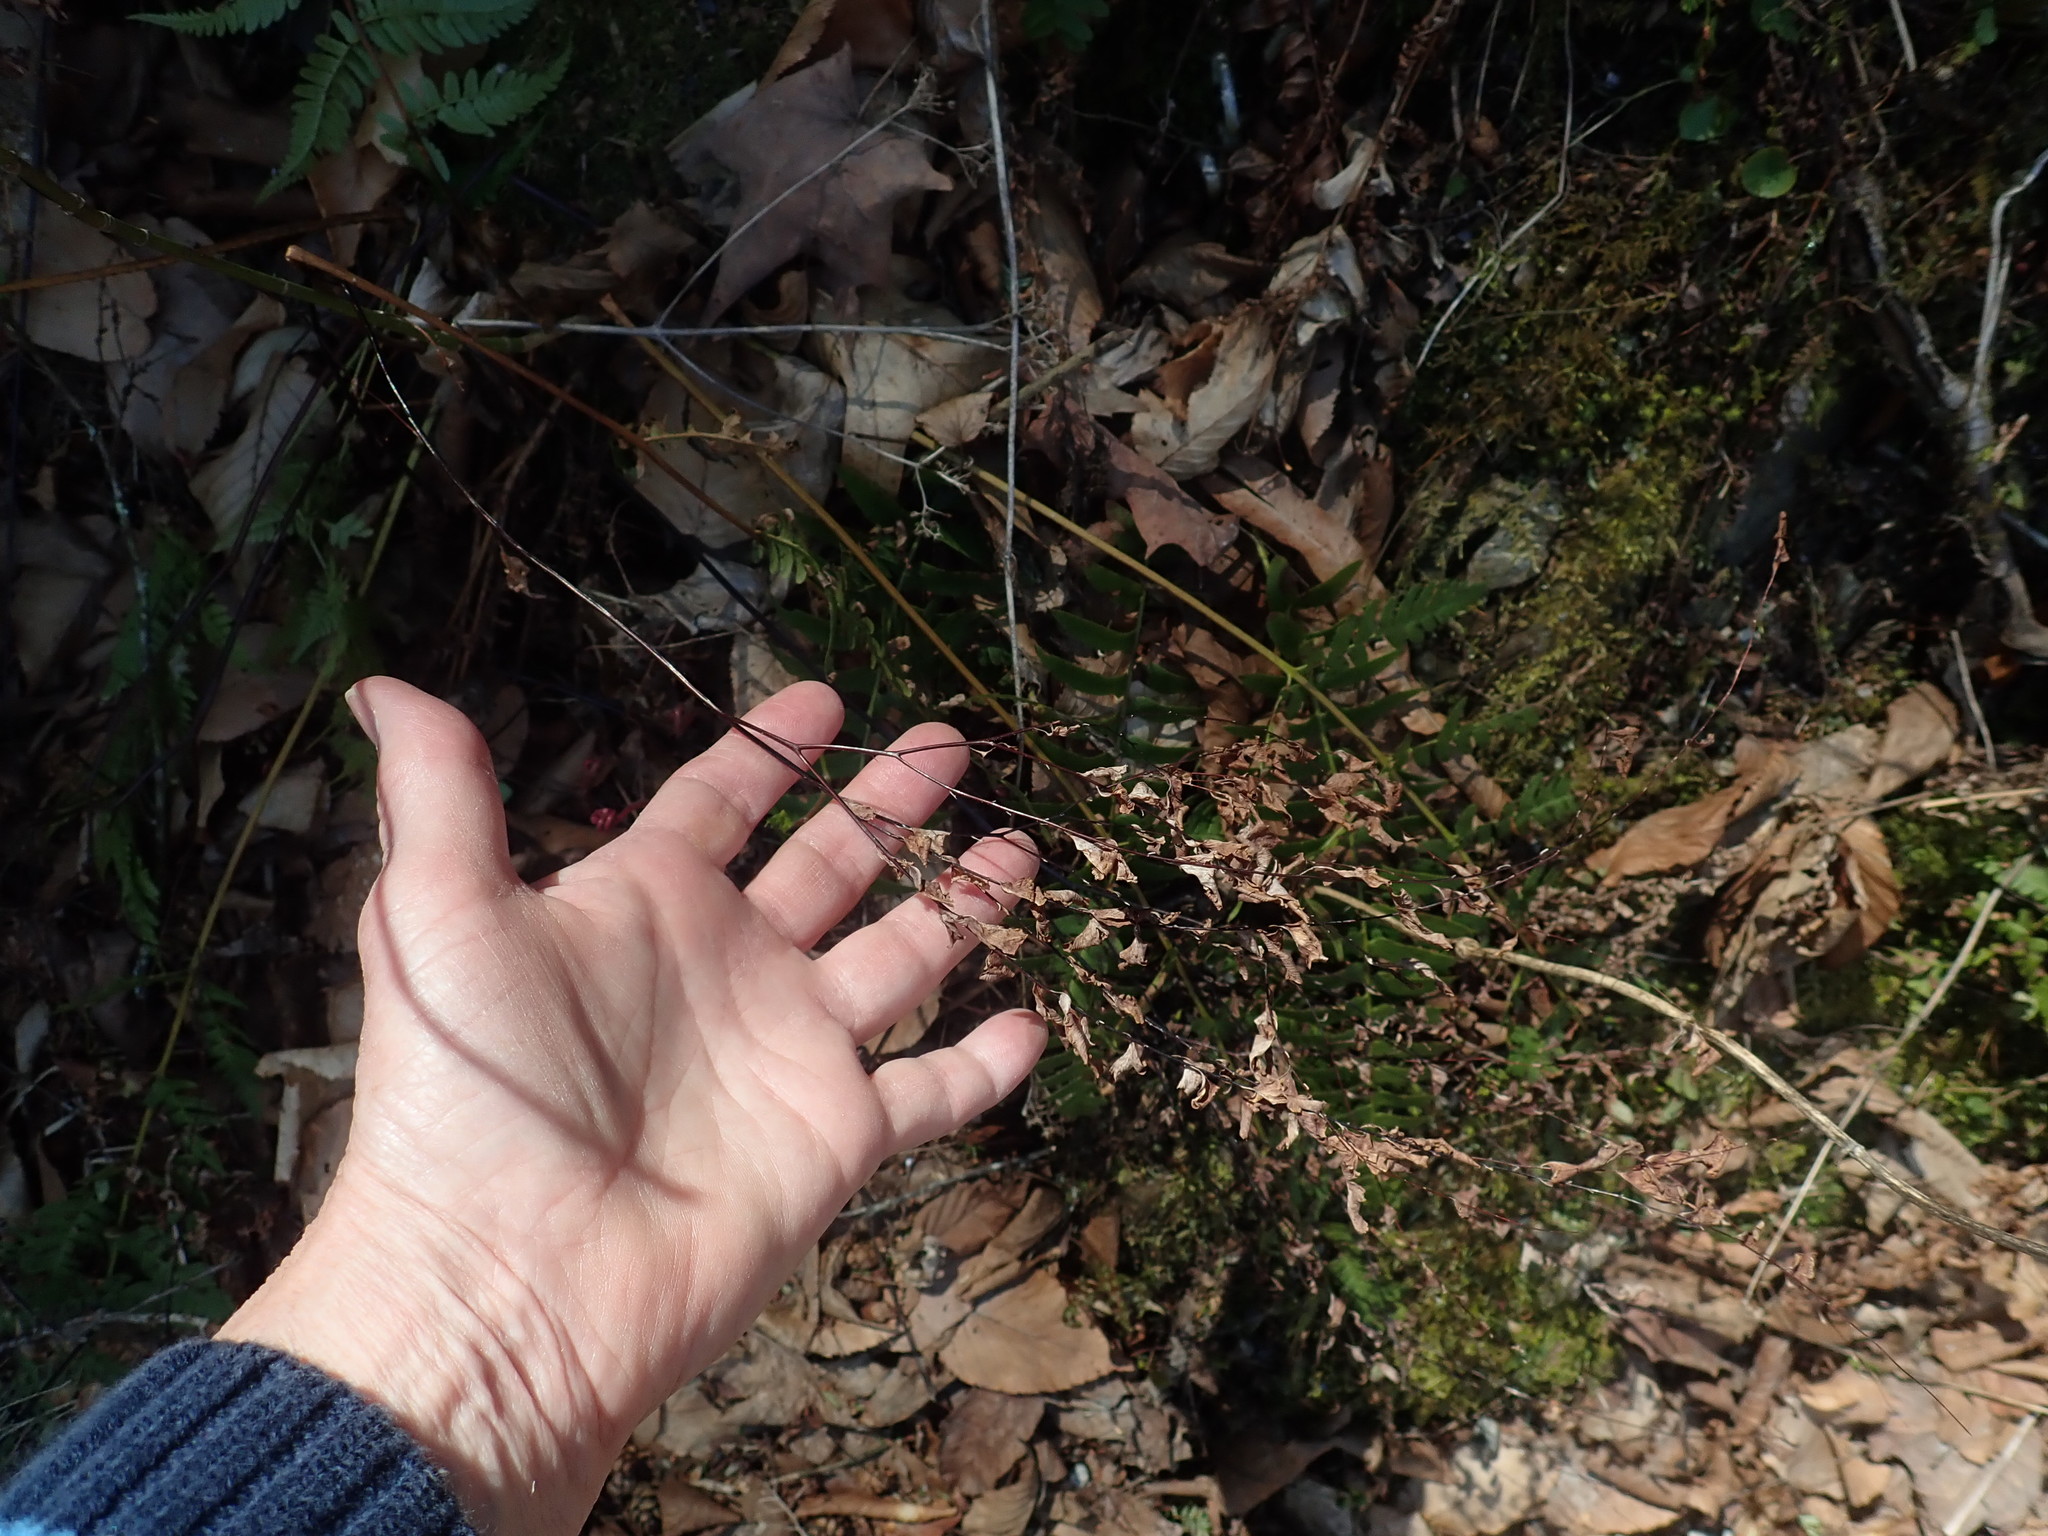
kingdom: Plantae
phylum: Tracheophyta
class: Polypodiopsida
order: Polypodiales
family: Pteridaceae
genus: Adiantum
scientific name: Adiantum pedatum
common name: Five-finger fern
